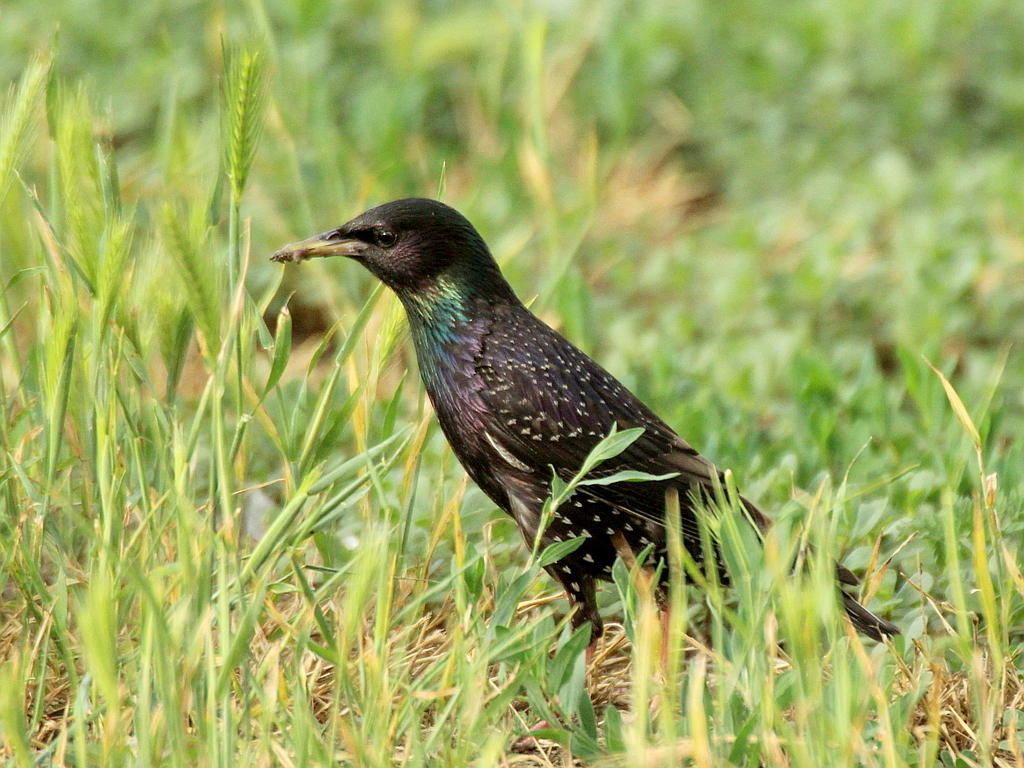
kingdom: Animalia
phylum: Chordata
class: Aves
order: Passeriformes
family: Sturnidae
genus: Sturnus
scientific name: Sturnus vulgaris
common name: Common starling
